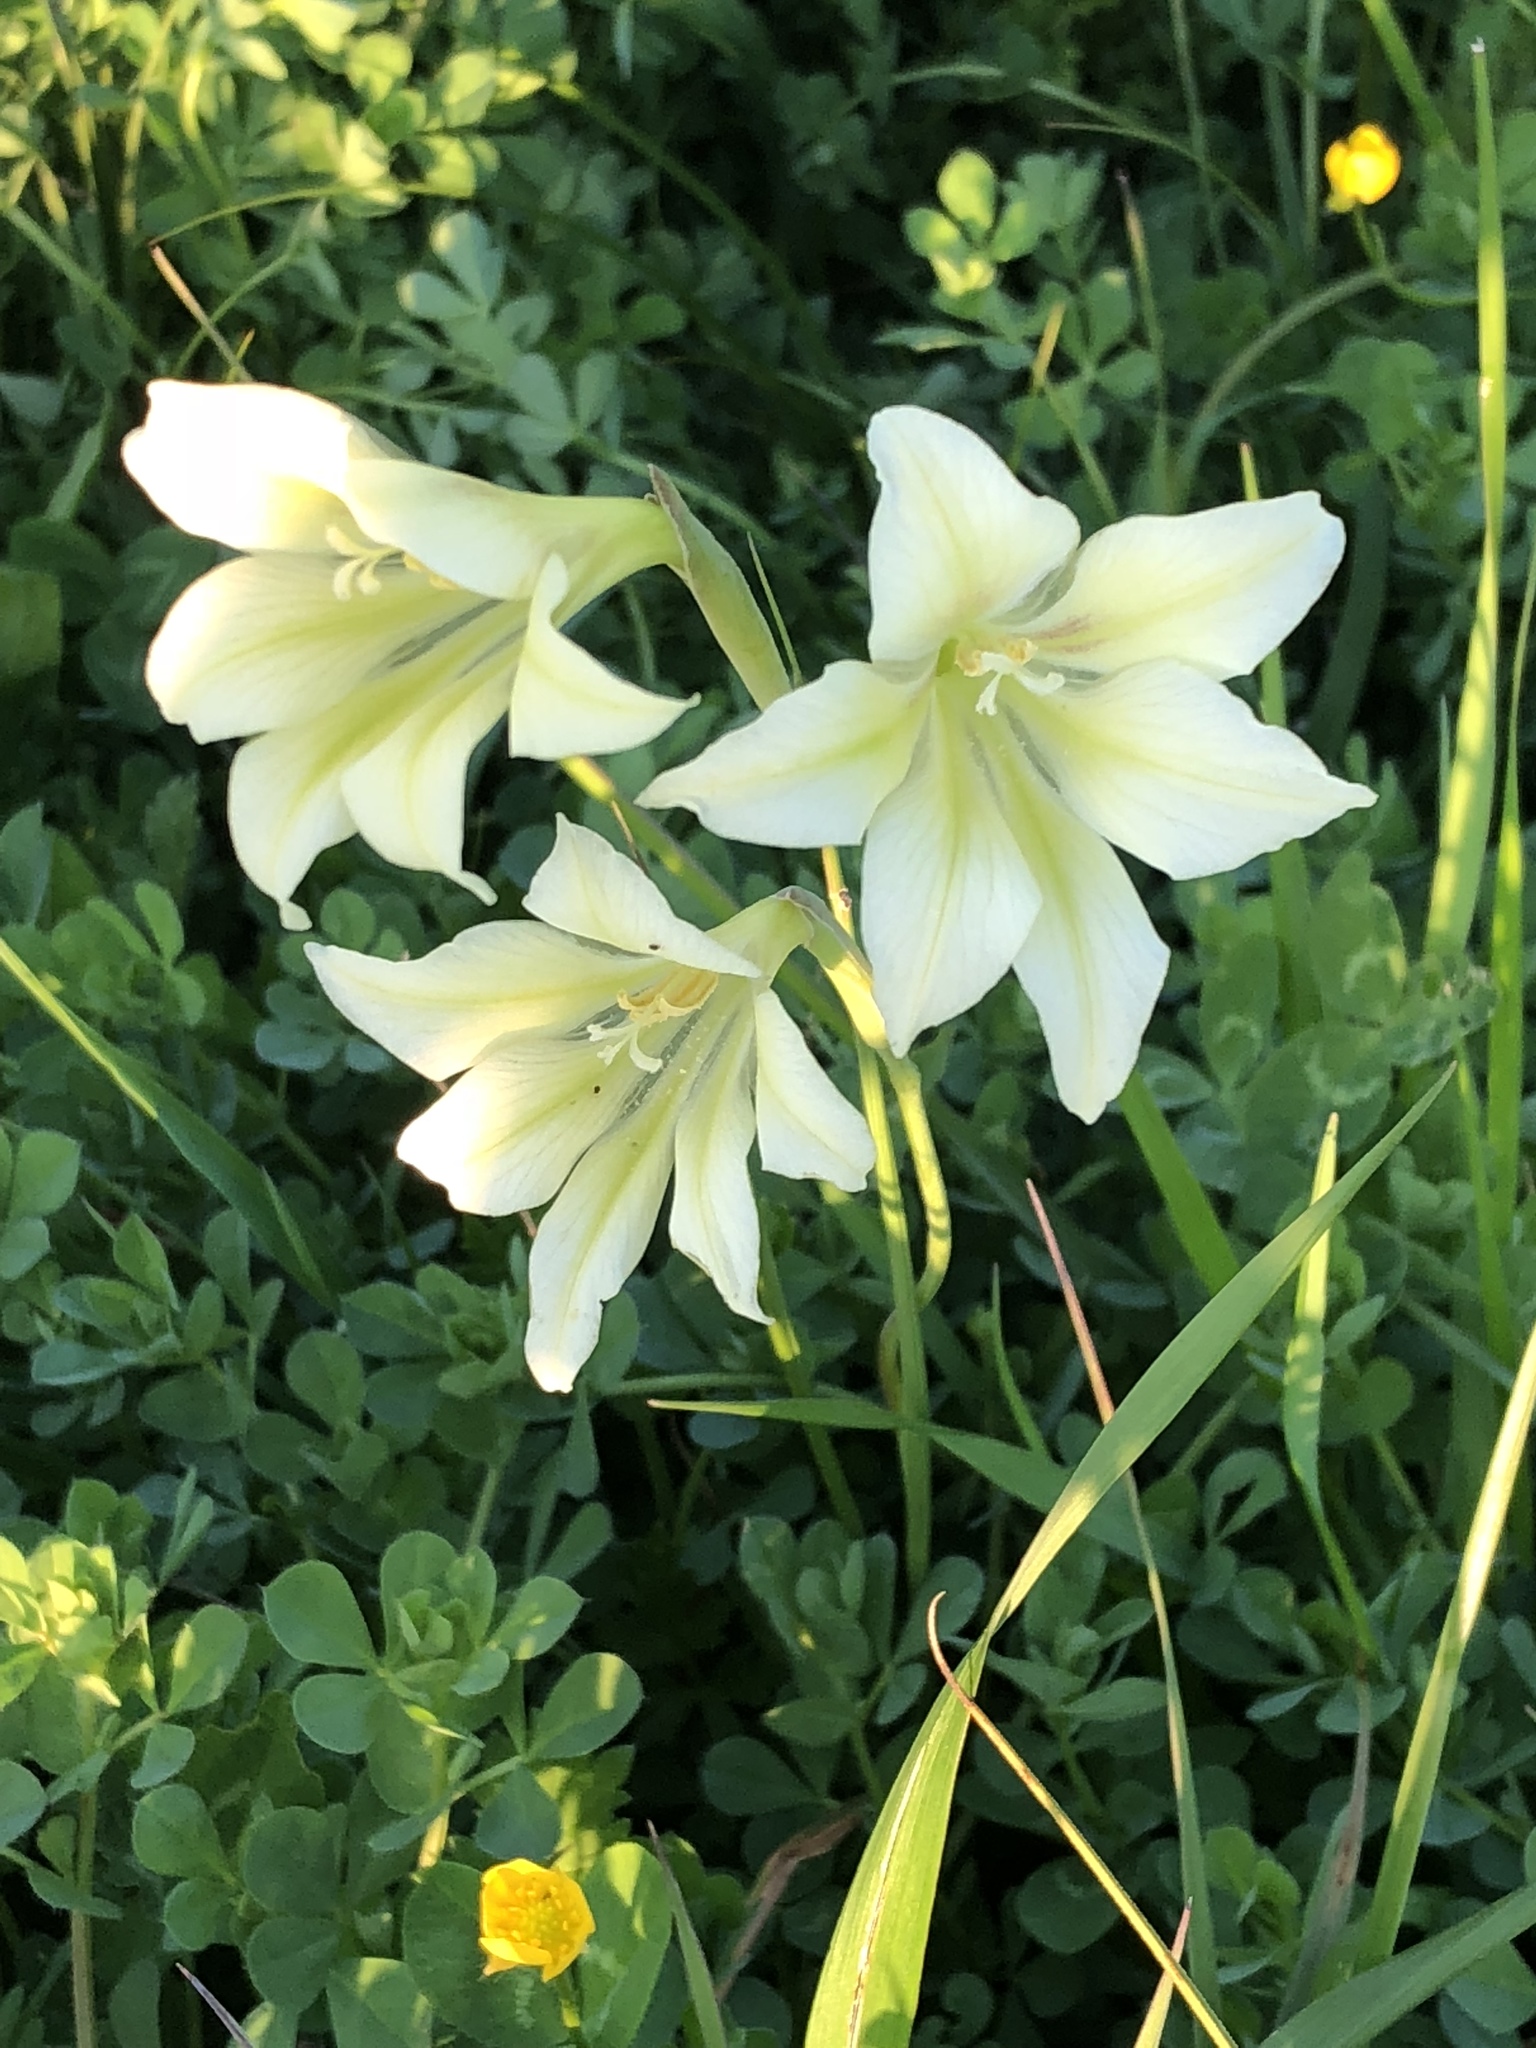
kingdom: Plantae
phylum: Tracheophyta
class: Liliopsida
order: Asparagales
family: Iridaceae
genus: Gladiolus
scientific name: Gladiolus tristis
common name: Ever-flowering gladiolus
